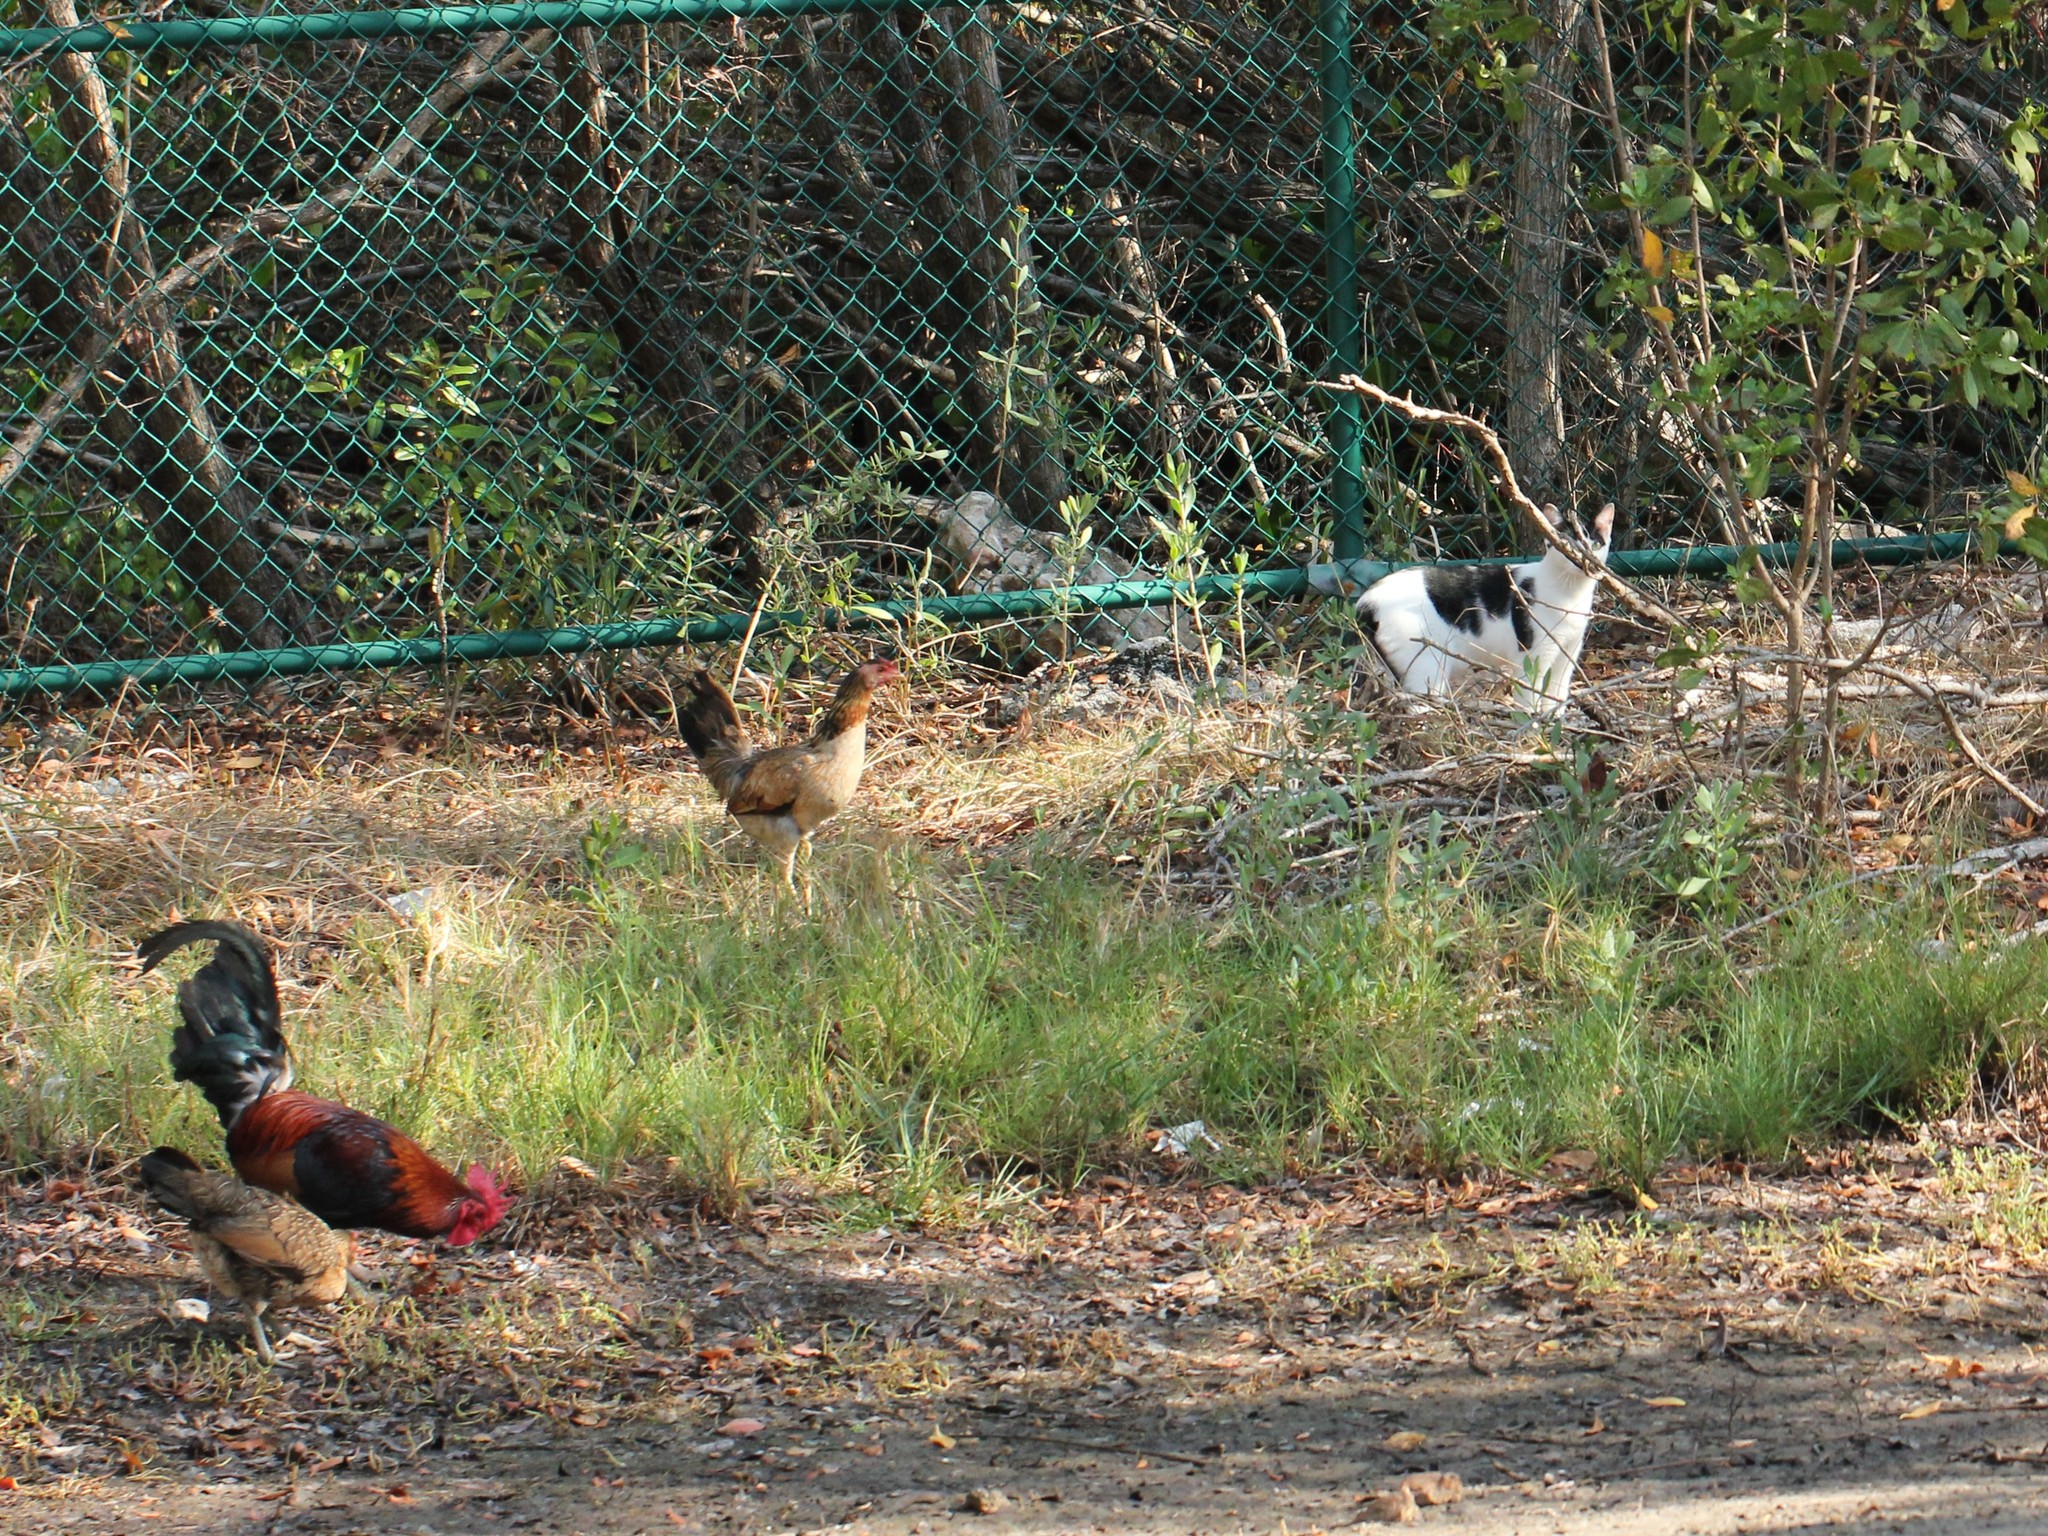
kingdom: Animalia
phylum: Chordata
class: Mammalia
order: Carnivora
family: Felidae
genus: Felis
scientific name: Felis catus
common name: Domestic cat
